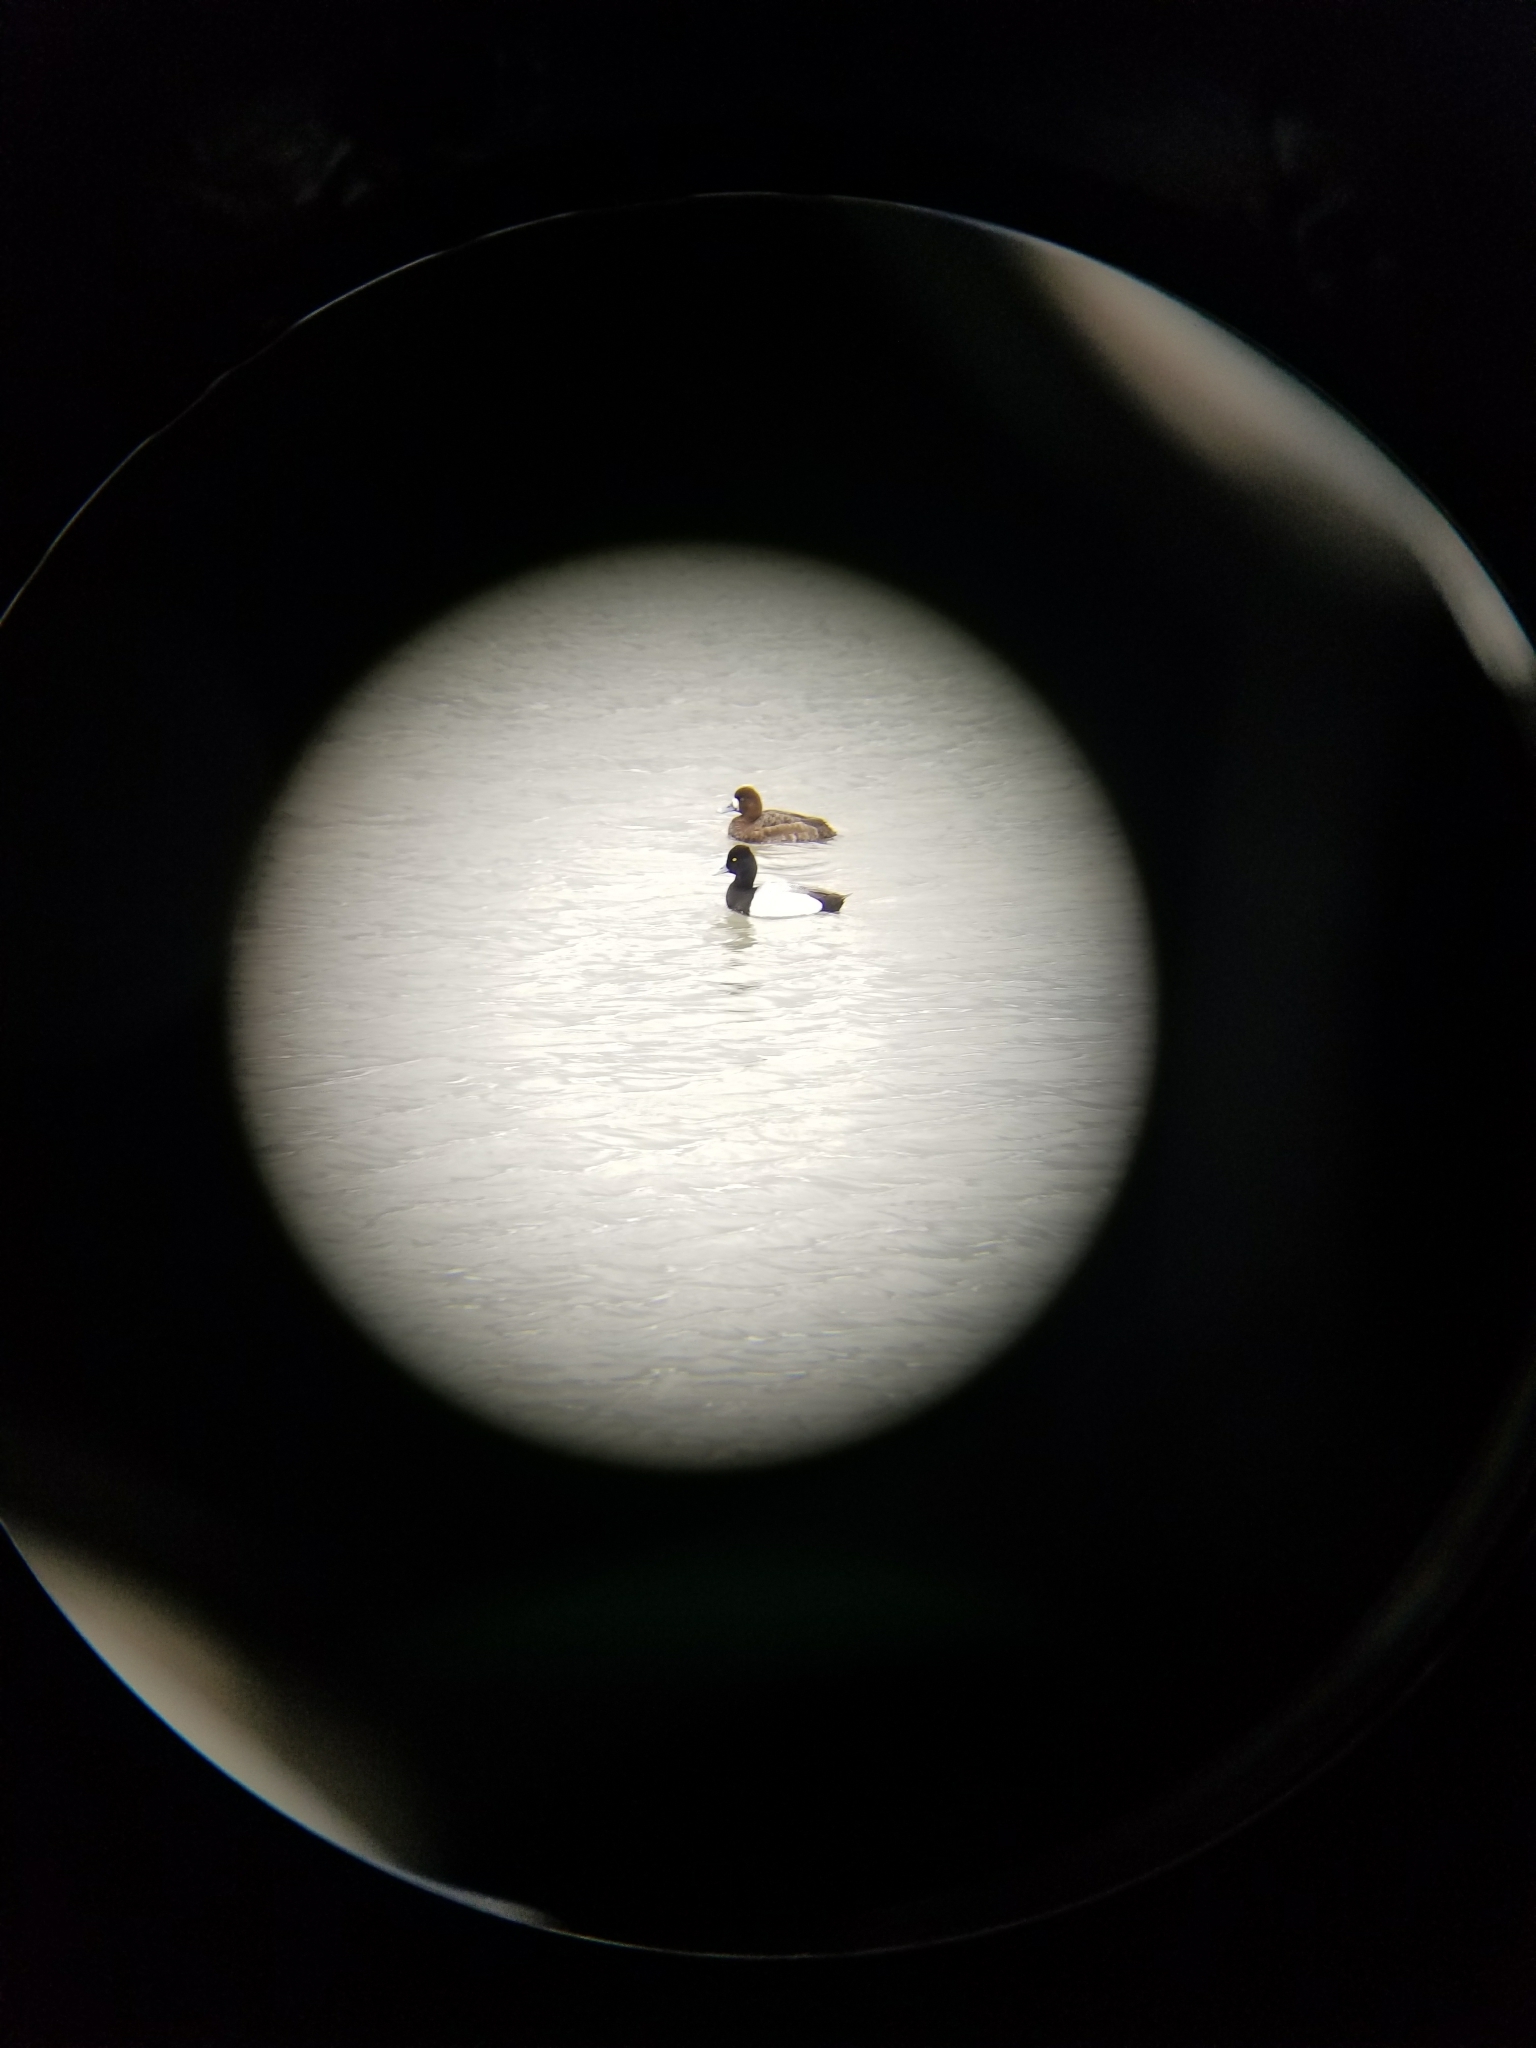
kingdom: Animalia
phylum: Chordata
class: Aves
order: Anseriformes
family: Anatidae
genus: Aythya
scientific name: Aythya affinis
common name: Lesser scaup
